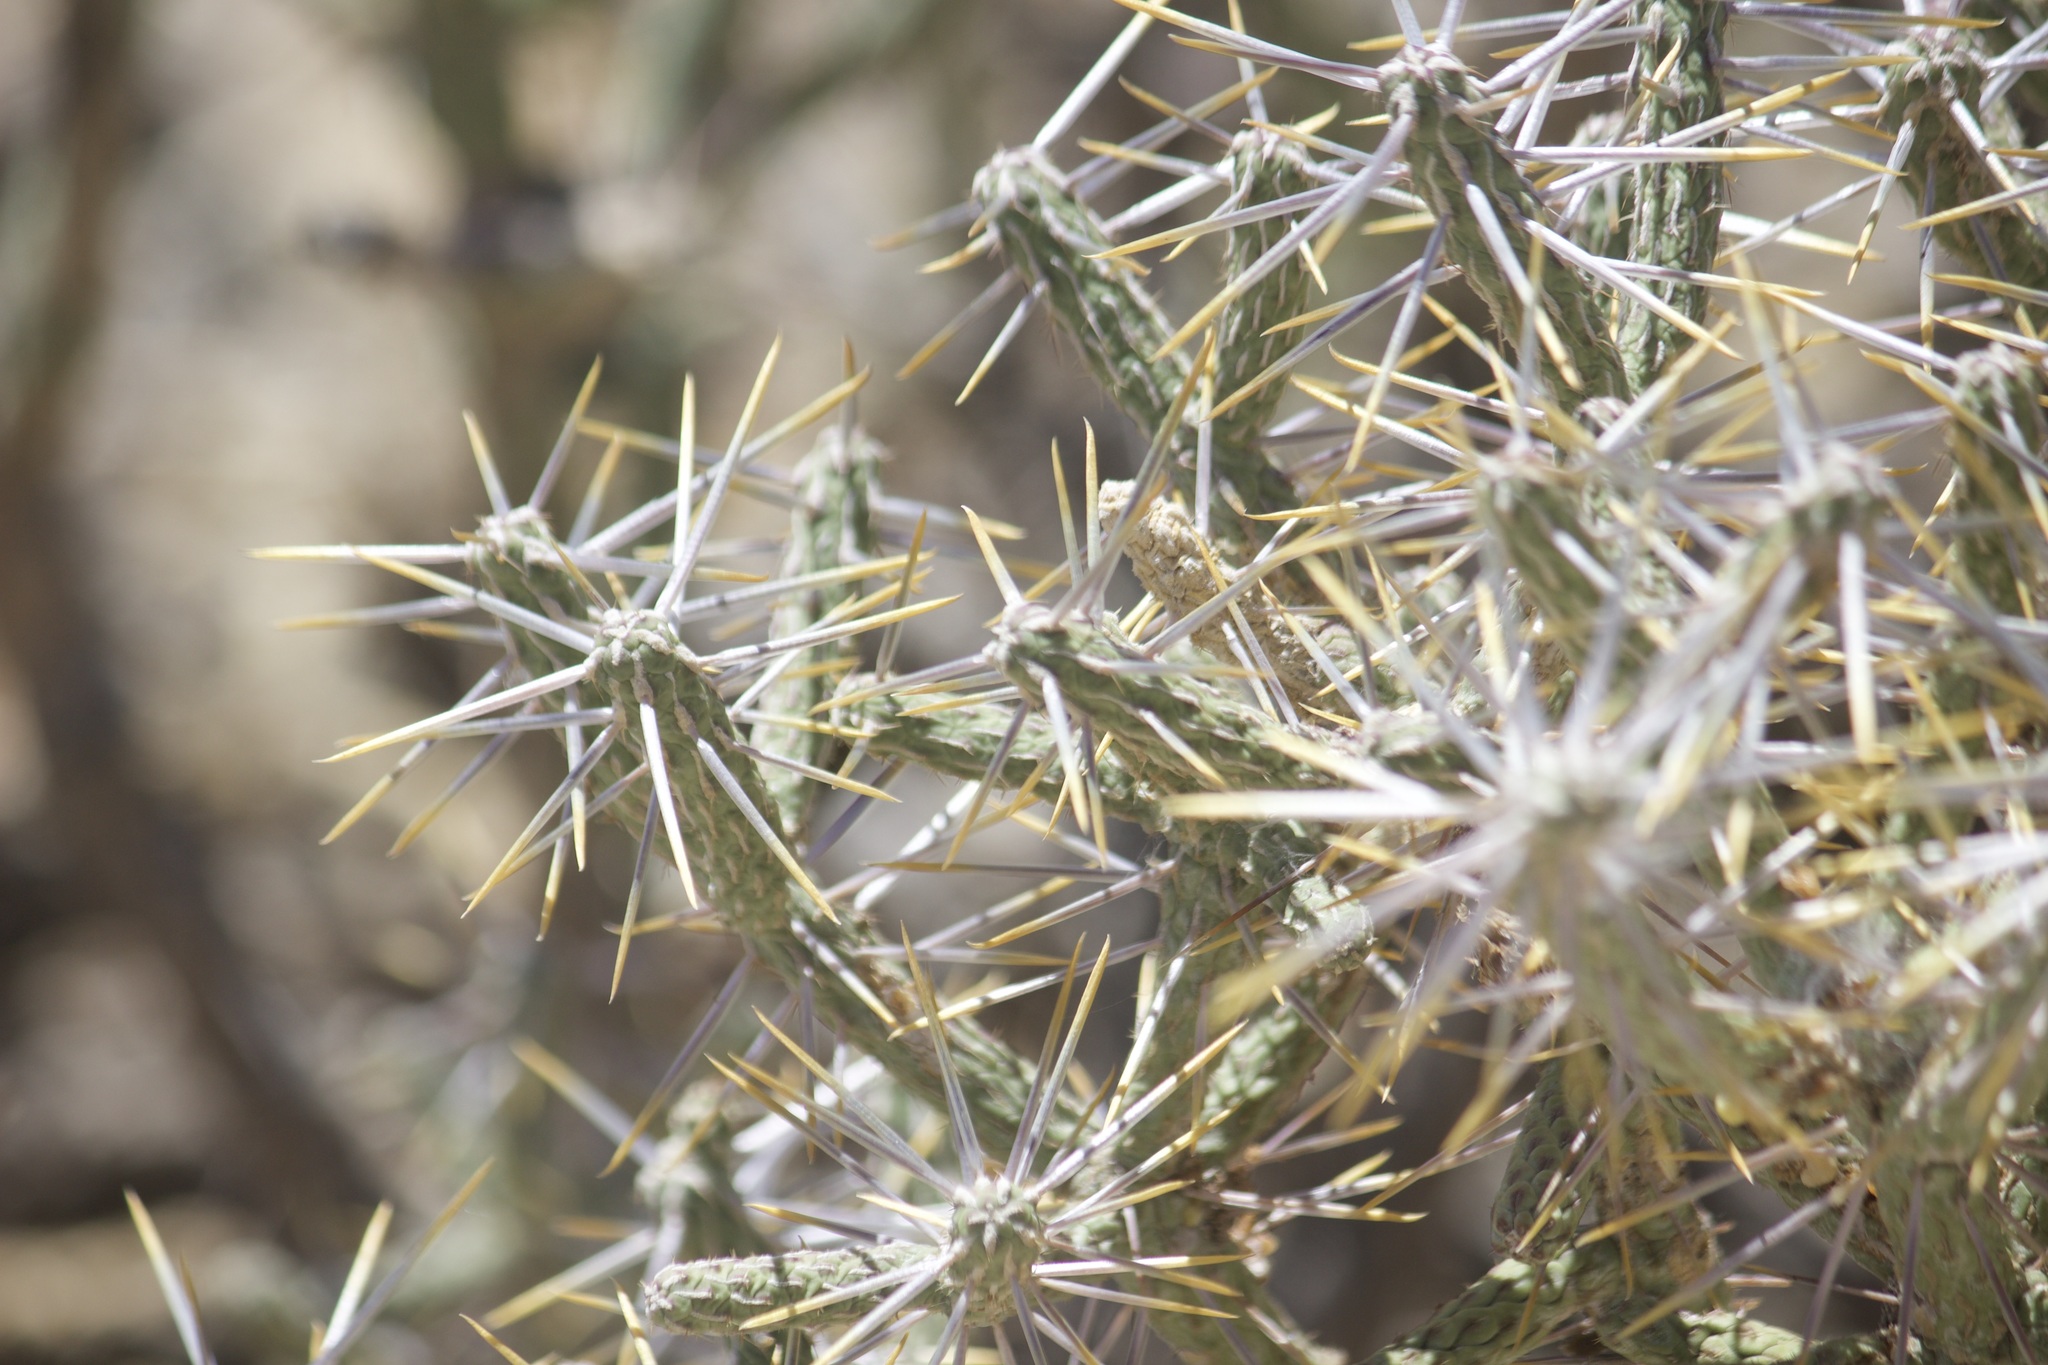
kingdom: Plantae
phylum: Tracheophyta
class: Magnoliopsida
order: Caryophyllales
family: Cactaceae
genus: Cylindropuntia
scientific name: Cylindropuntia ramosissima
